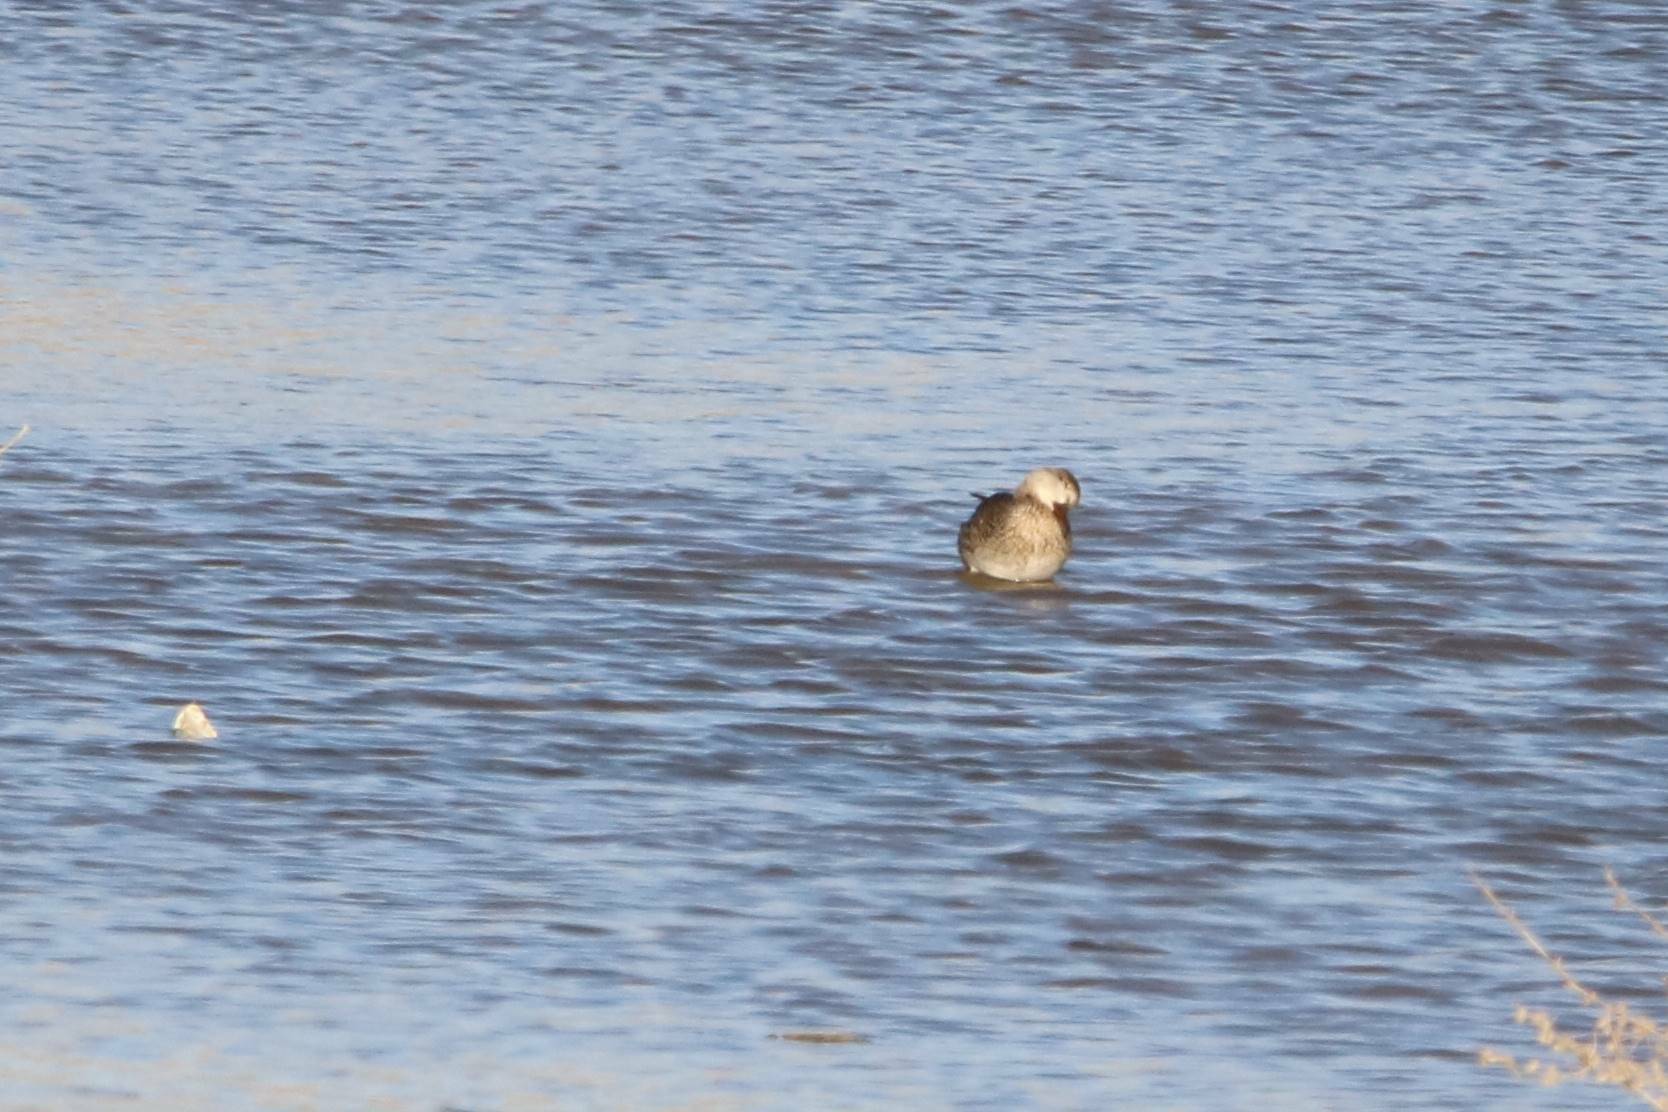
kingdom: Animalia
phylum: Chordata
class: Aves
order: Anseriformes
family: Anatidae
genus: Anas
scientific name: Anas crecca
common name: Eurasian teal
